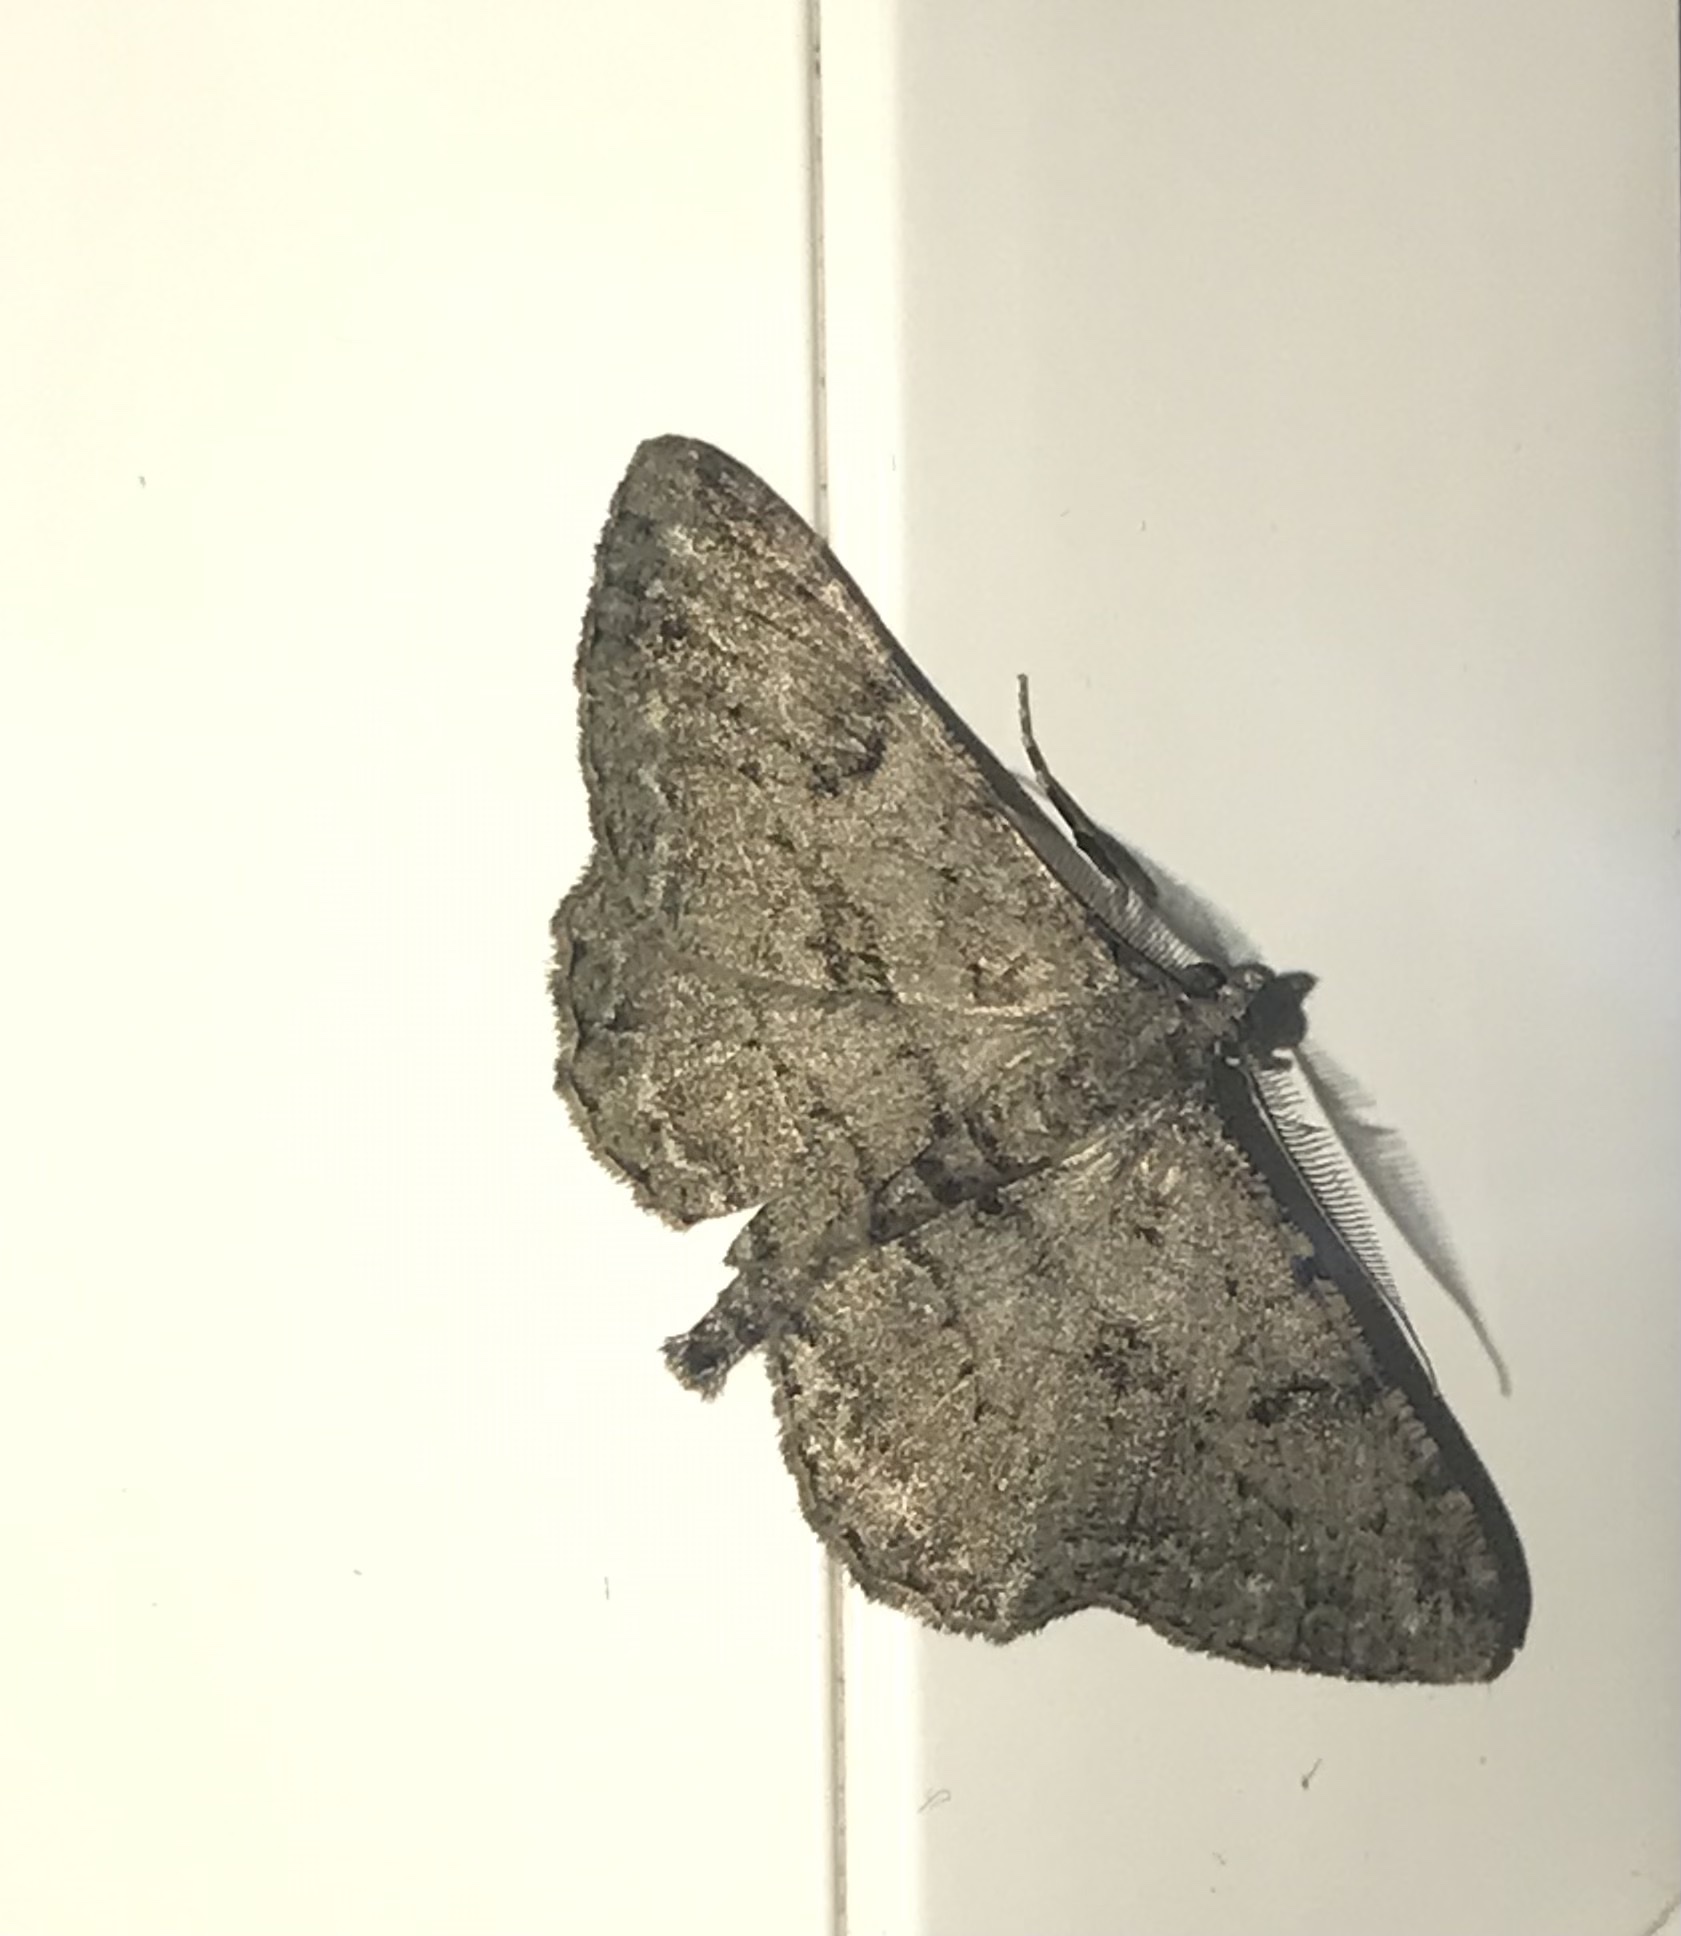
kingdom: Animalia
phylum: Arthropoda
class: Insecta
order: Lepidoptera
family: Geometridae
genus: Peribatodes
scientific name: Peribatodes rhomboidaria
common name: Willow beauty
